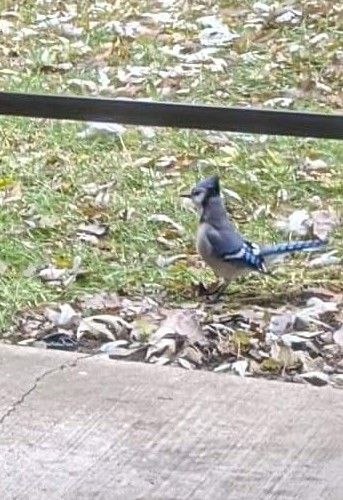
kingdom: Animalia
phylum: Chordata
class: Aves
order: Passeriformes
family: Corvidae
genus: Cyanocitta
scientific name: Cyanocitta cristata
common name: Blue jay
